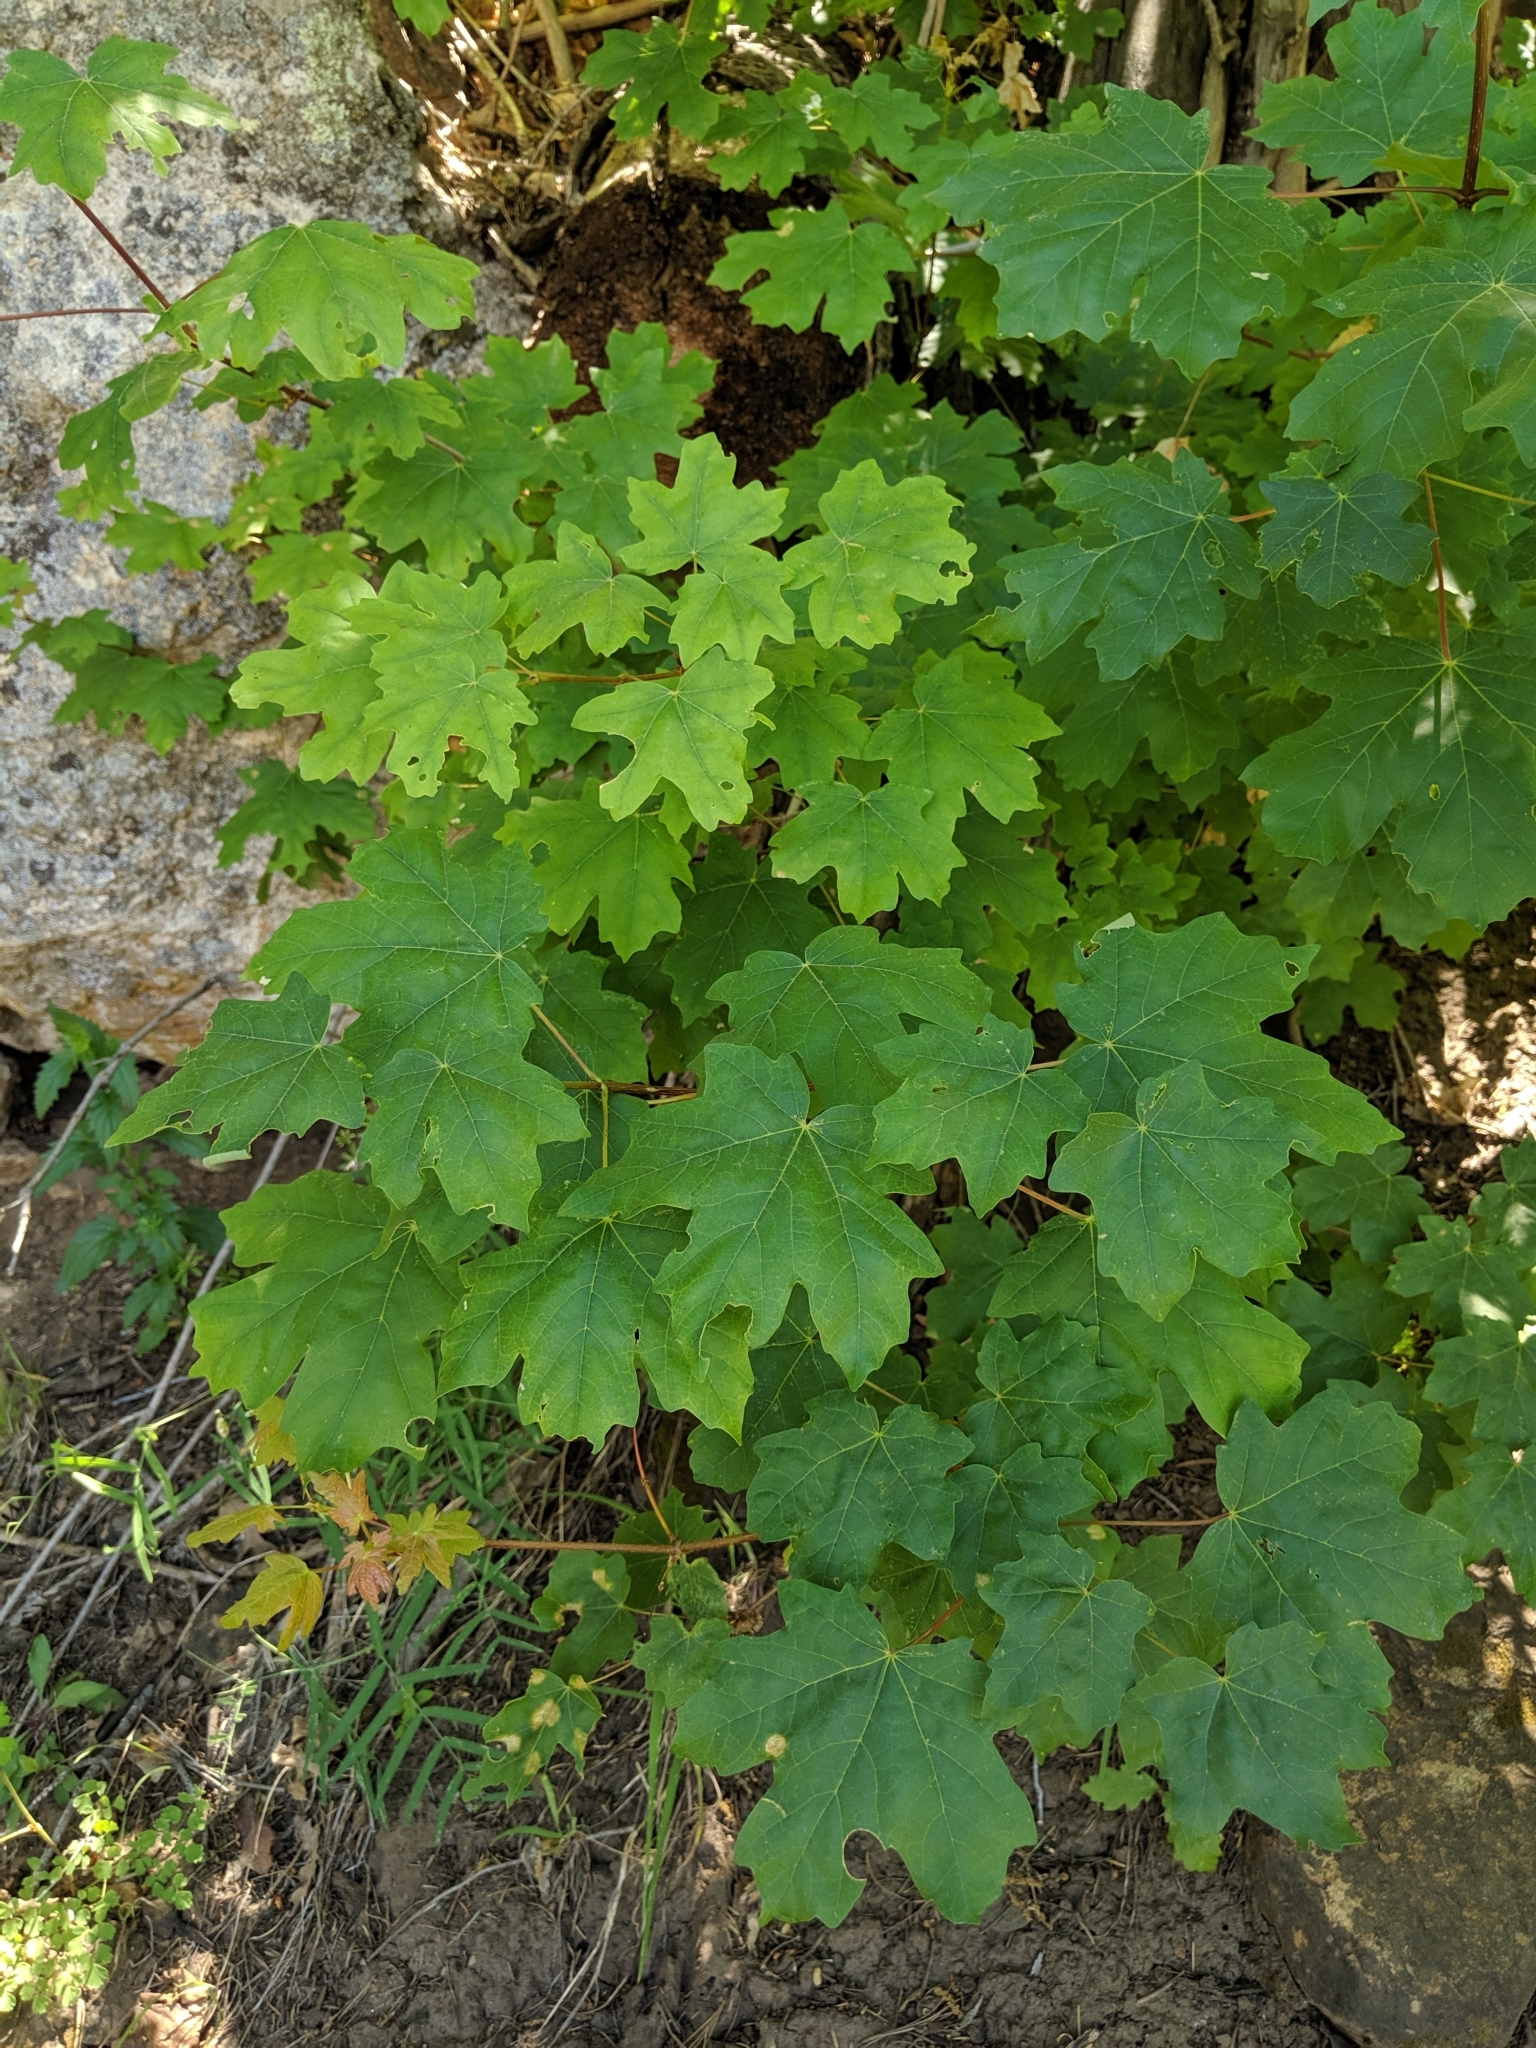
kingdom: Plantae
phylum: Tracheophyta
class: Magnoliopsida
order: Sapindales
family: Sapindaceae
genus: Acer
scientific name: Acer grandidentatum
